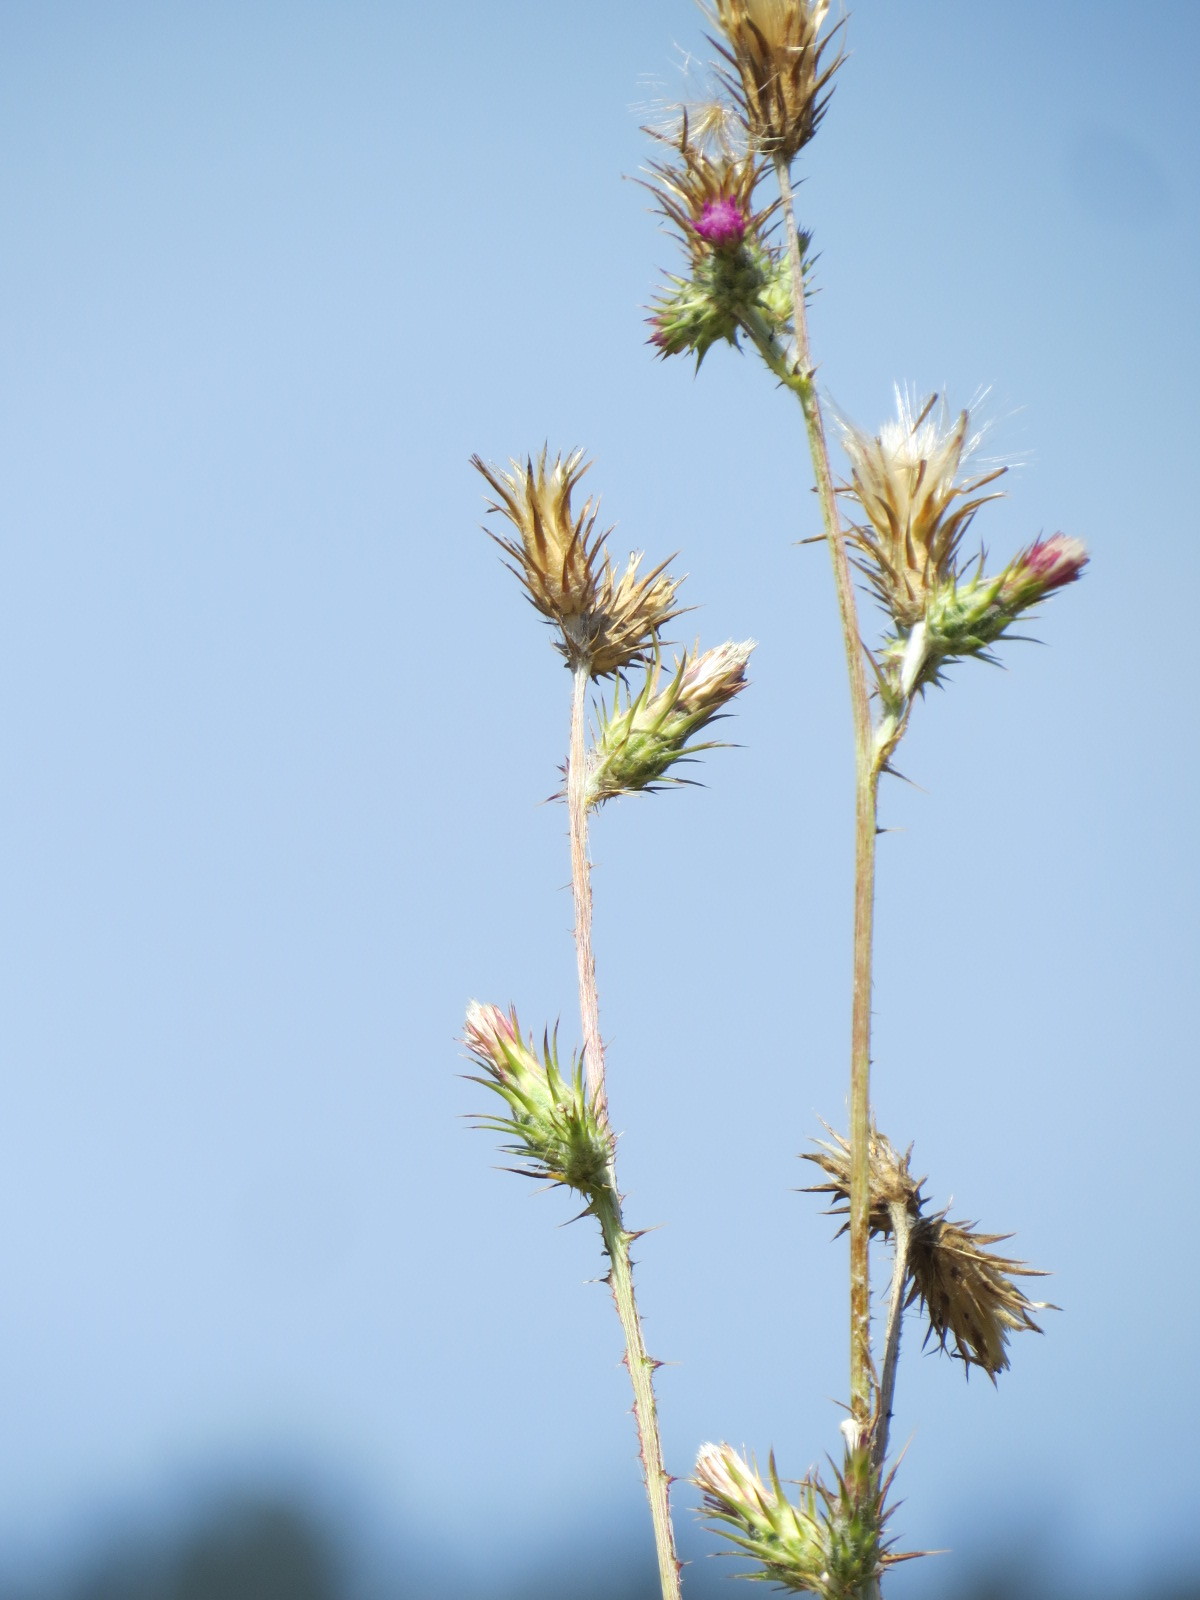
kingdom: Plantae
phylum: Tracheophyta
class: Magnoliopsida
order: Asterales
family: Asteraceae
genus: Carduus
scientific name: Carduus pycnocephalus
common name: Plymouth thistle
